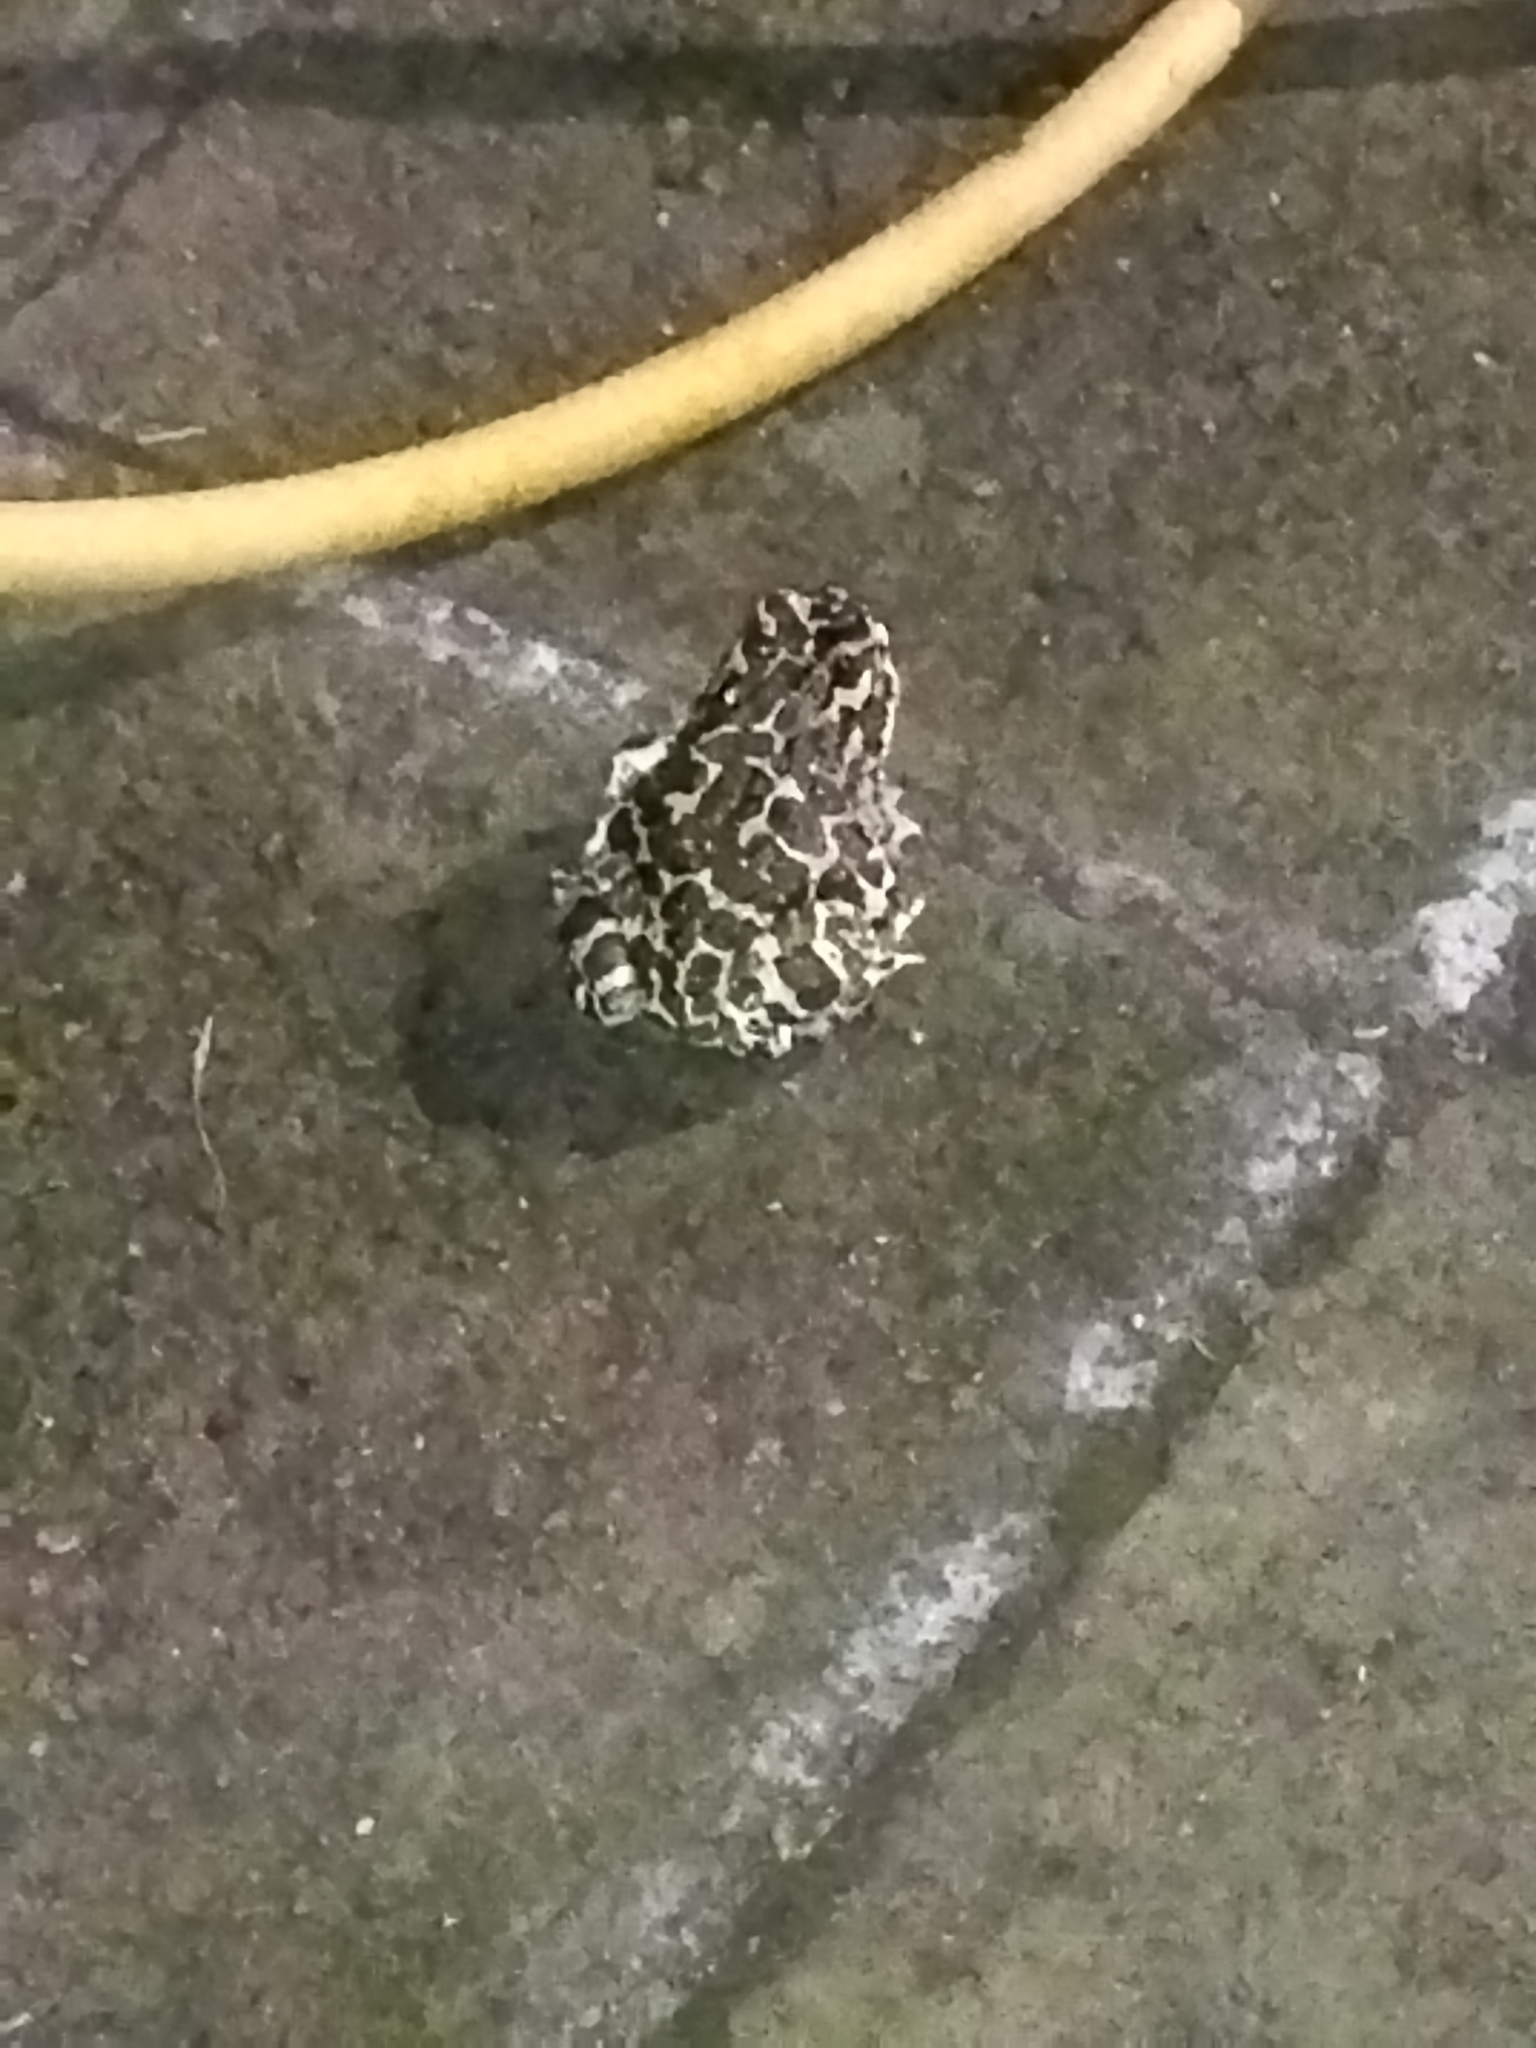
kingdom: Animalia
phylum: Chordata
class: Amphibia
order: Anura
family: Bufonidae
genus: Bufotes
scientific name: Bufotes viridis
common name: European green toad
